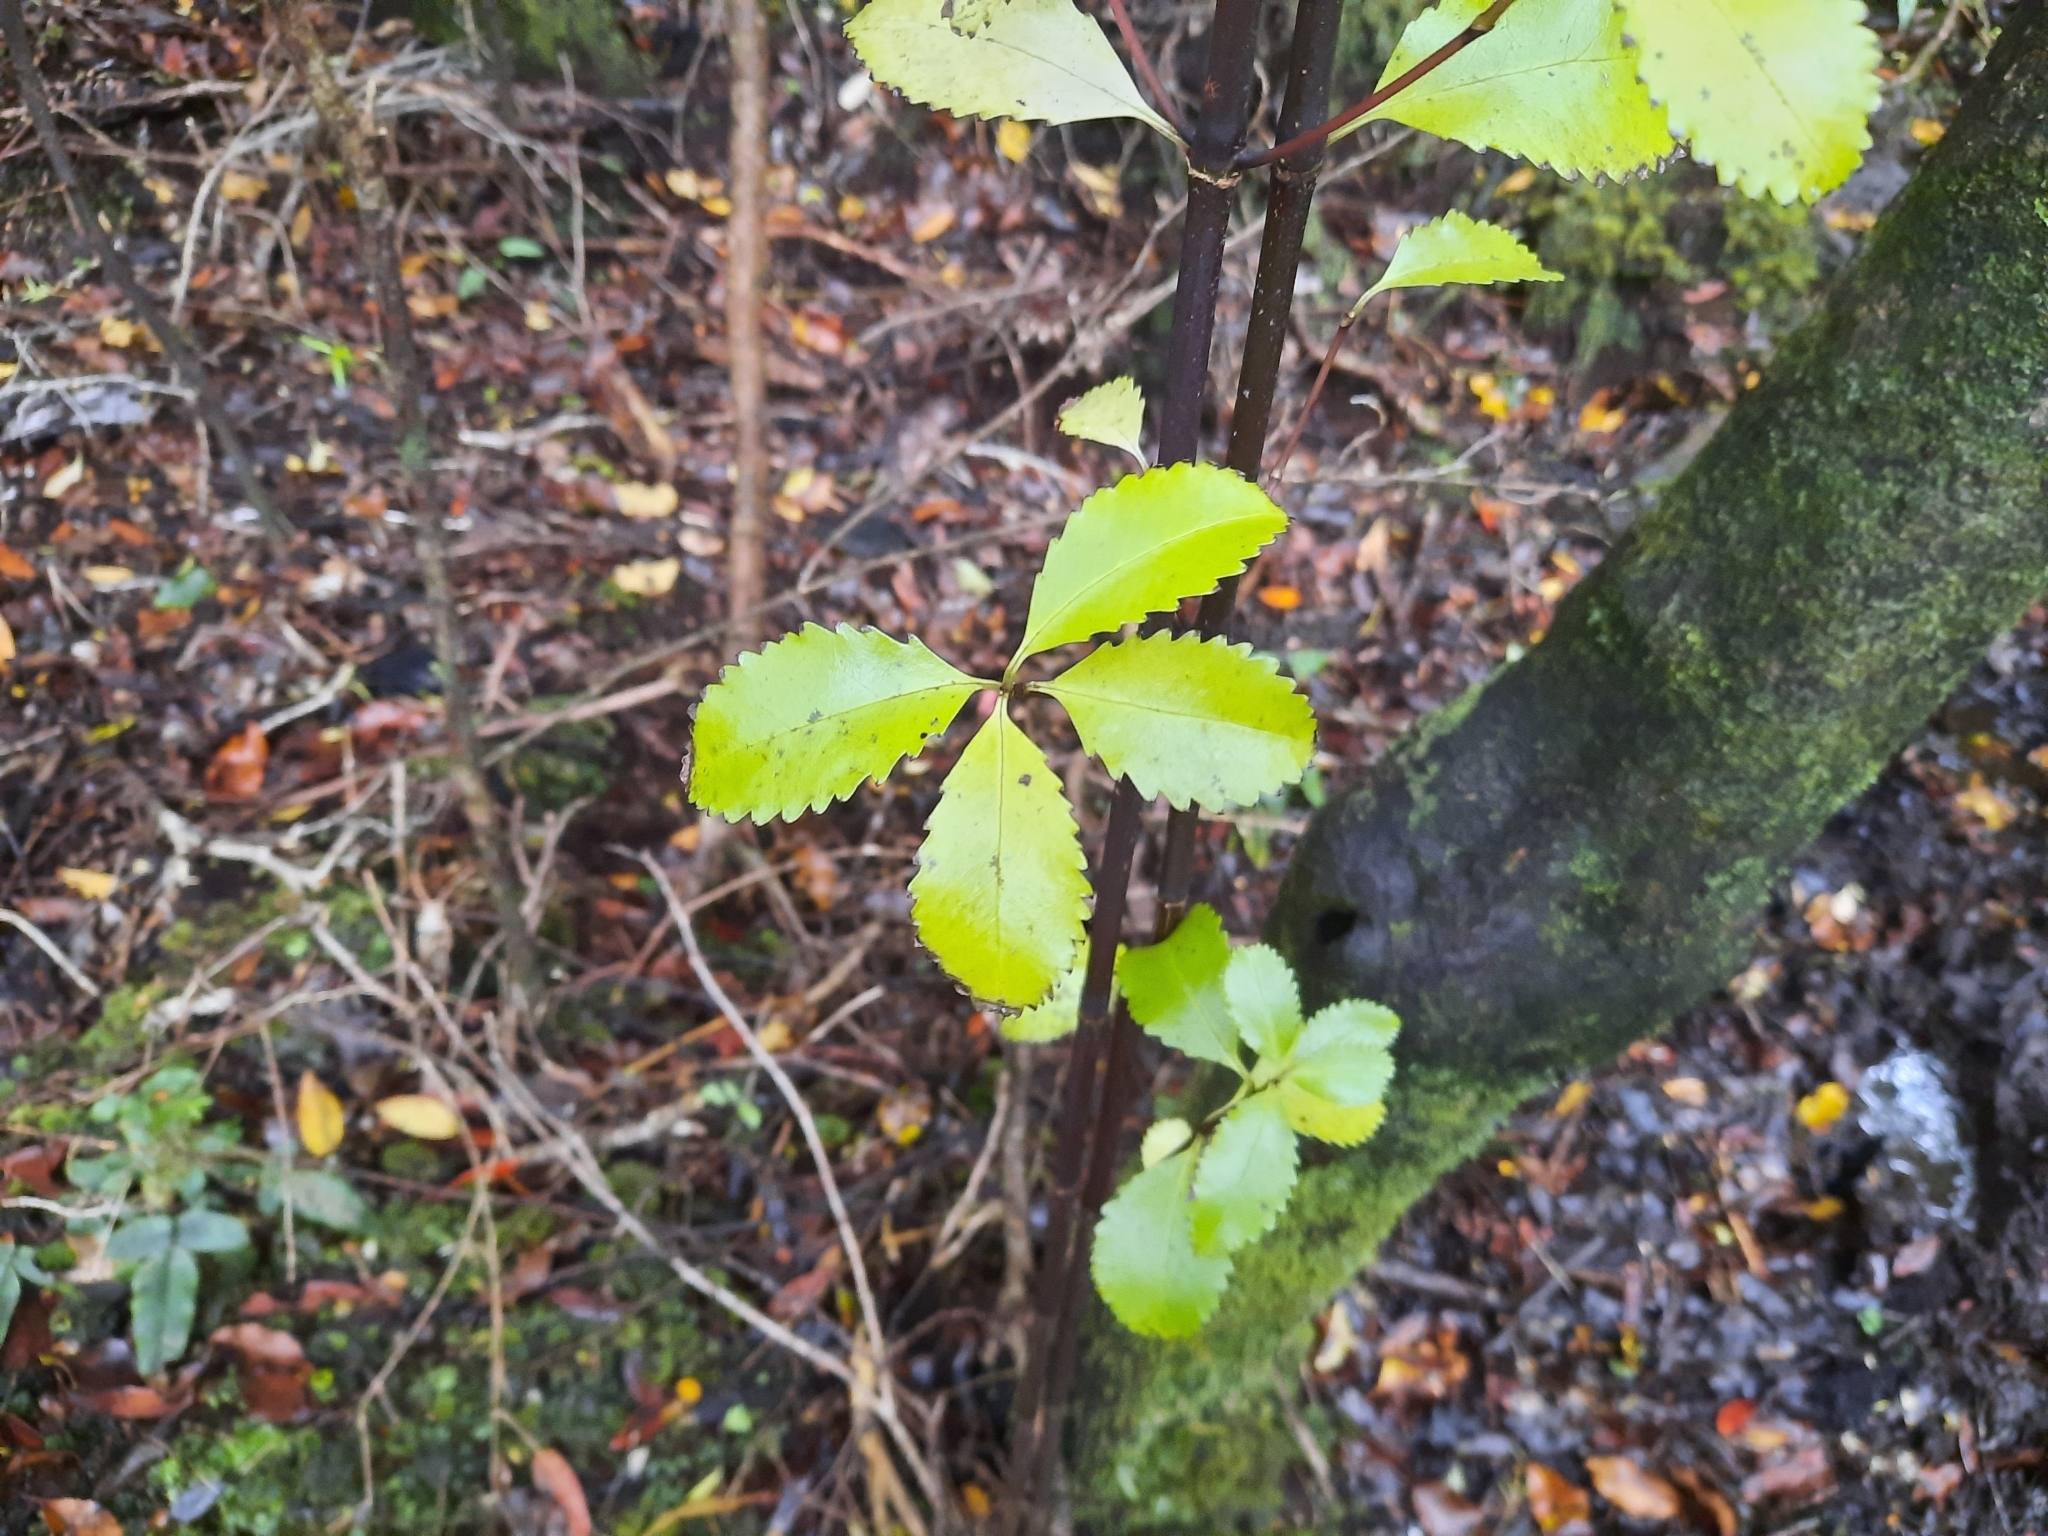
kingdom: Plantae
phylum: Tracheophyta
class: Magnoliopsida
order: Chloranthales
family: Chloranthaceae
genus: Ascarina
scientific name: Ascarina lucida
